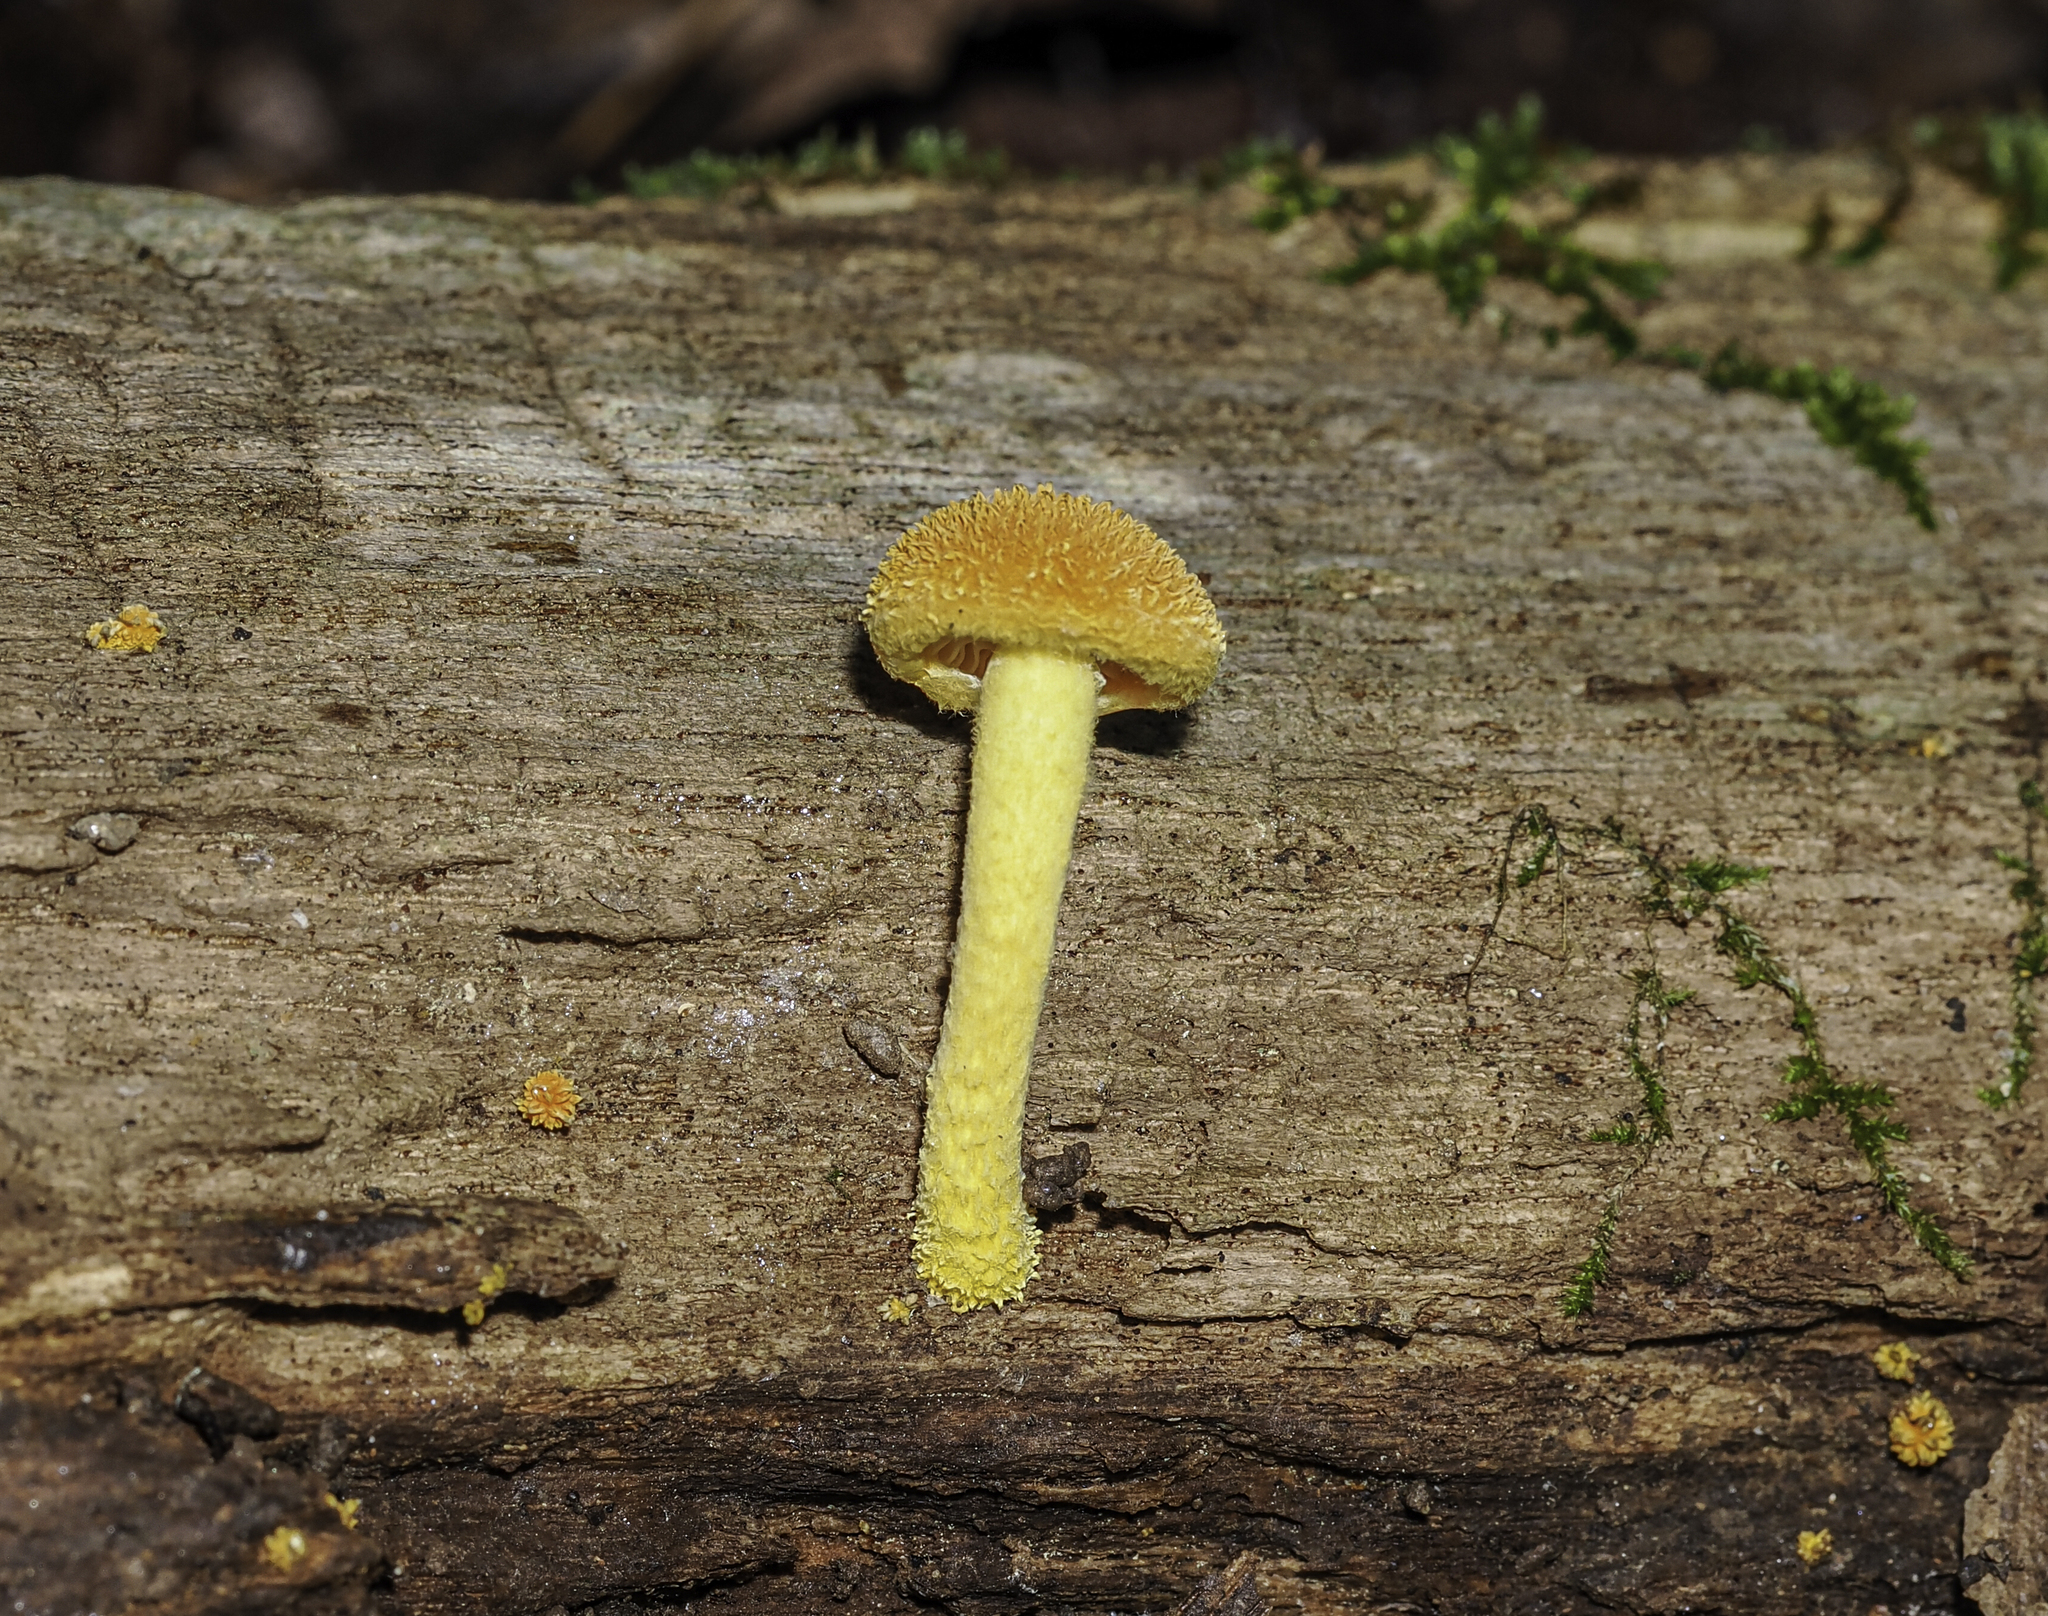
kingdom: Fungi
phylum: Basidiomycota
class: Agaricomycetes
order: Agaricales
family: Physalacriaceae
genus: Cyptotrama
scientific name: Cyptotrama chrysopepla
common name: Golden coincap
